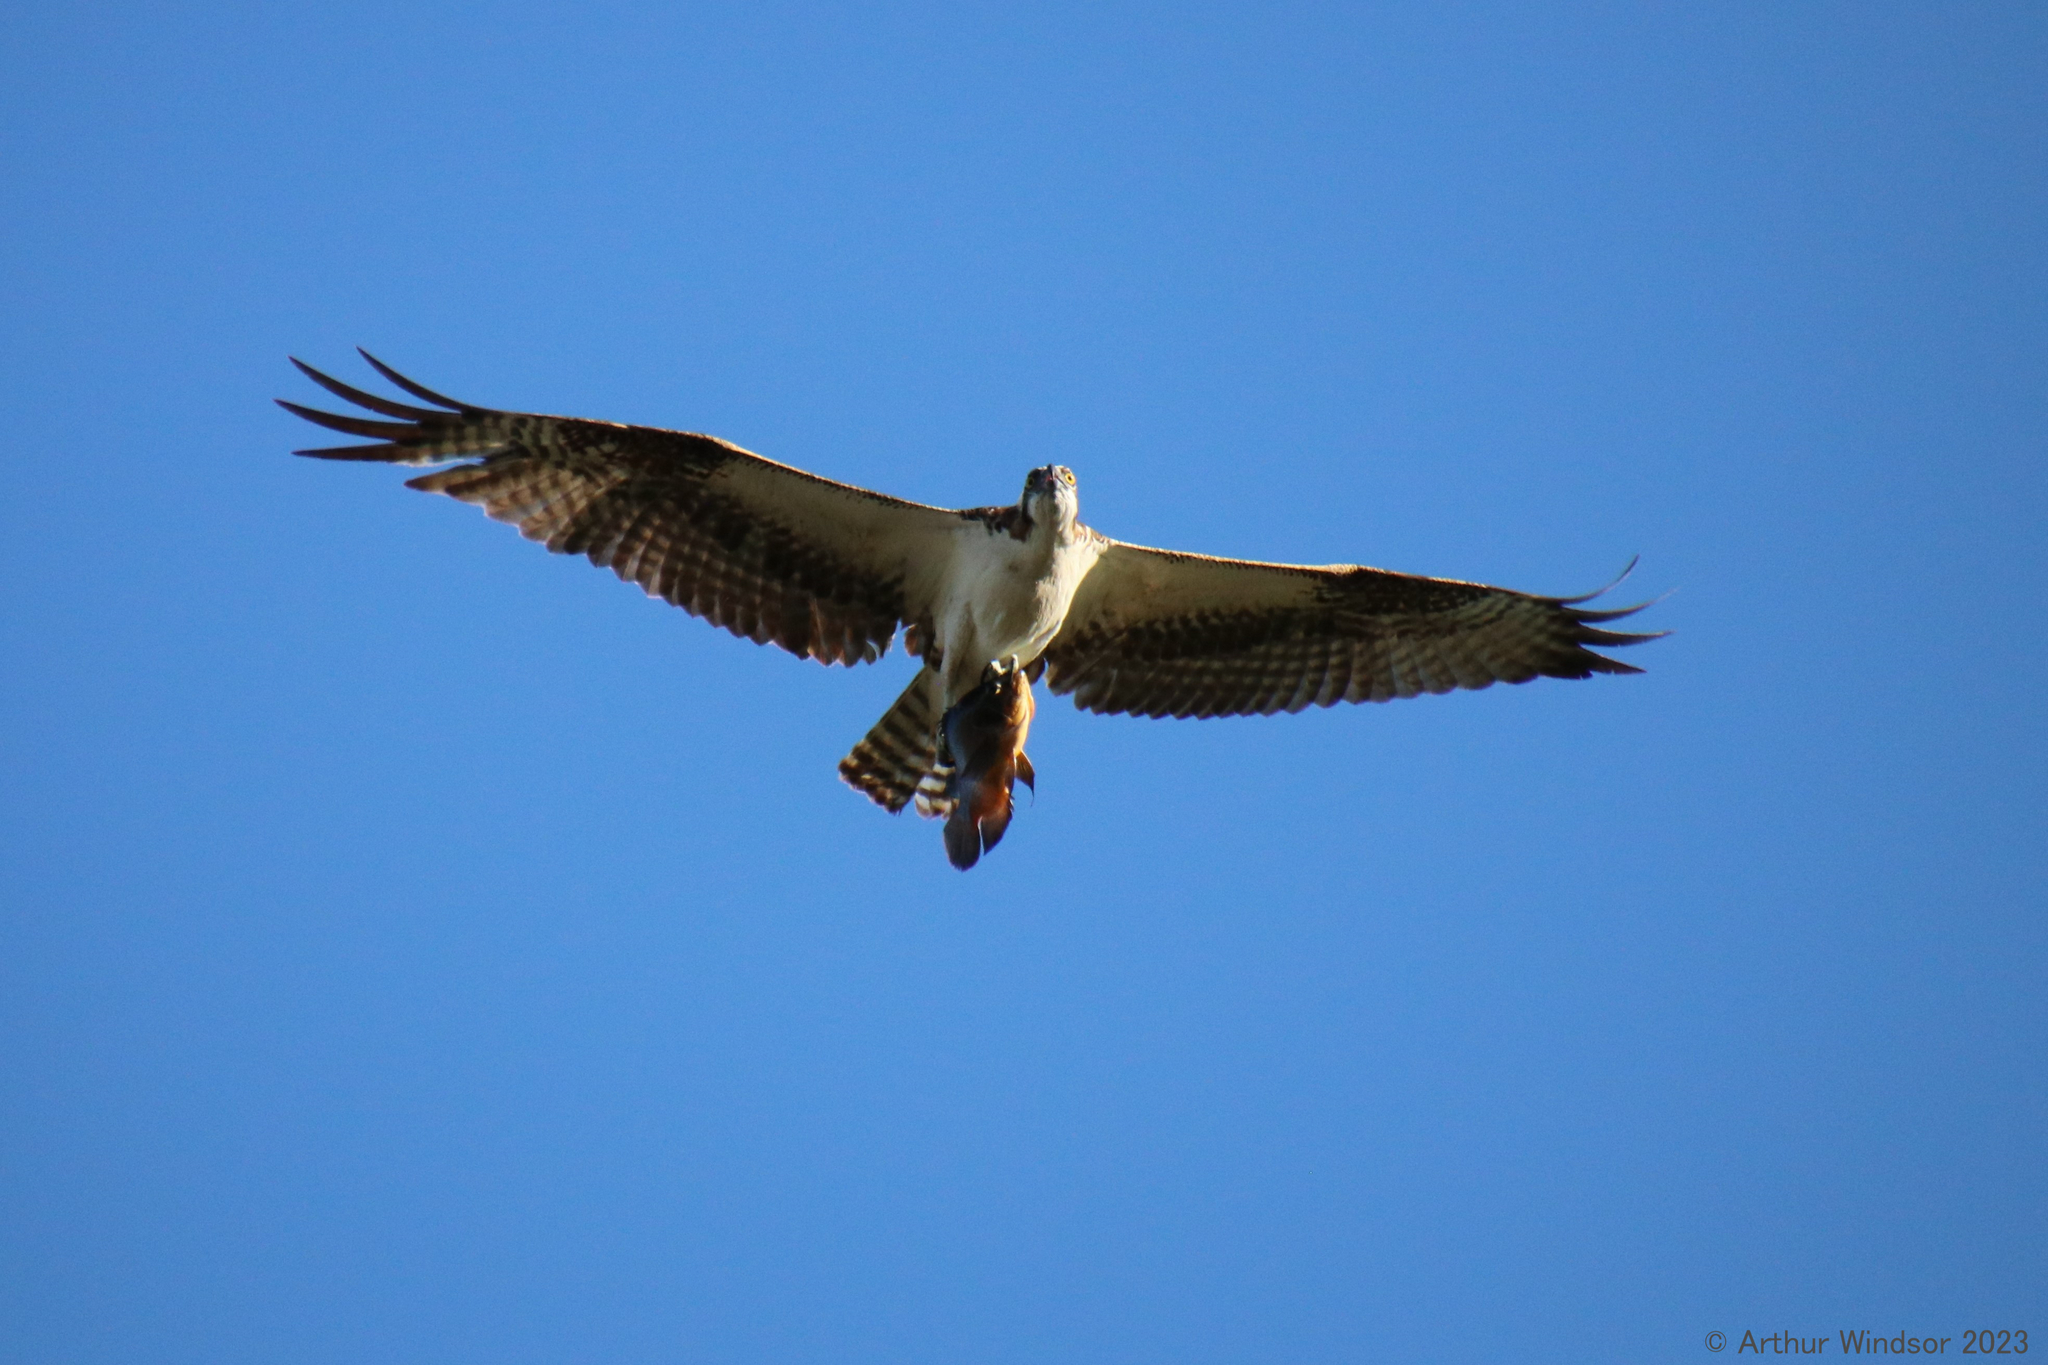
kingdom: Animalia
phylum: Chordata
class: Aves
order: Accipitriformes
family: Pandionidae
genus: Pandion
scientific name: Pandion haliaetus
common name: Osprey
